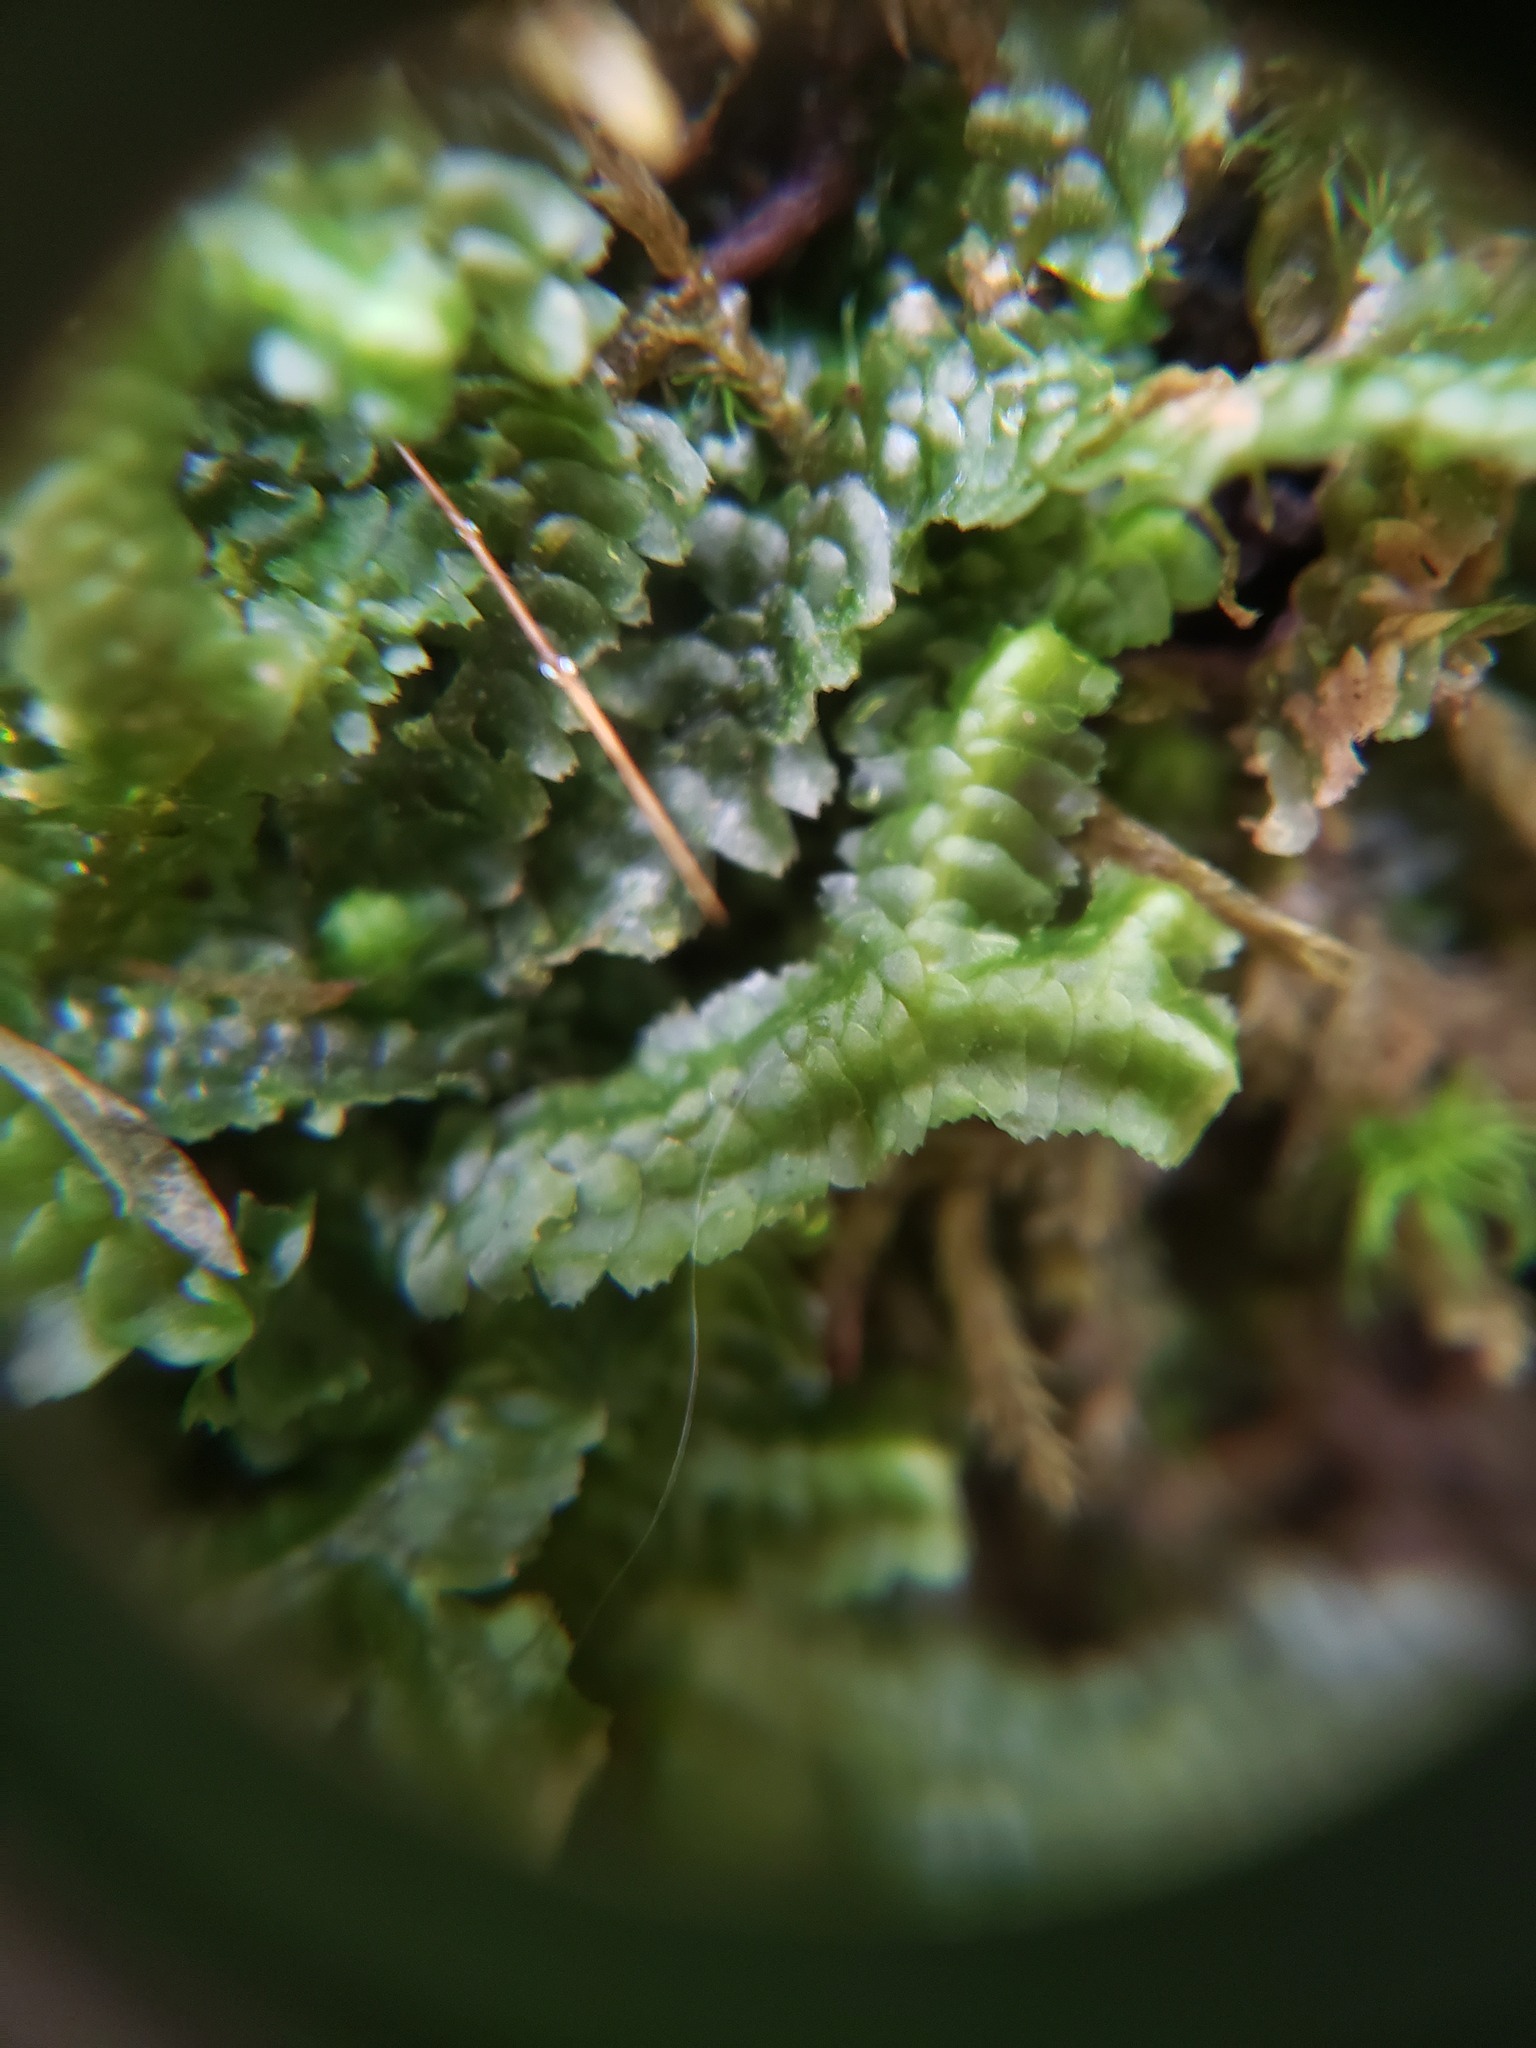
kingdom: Plantae
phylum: Marchantiophyta
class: Jungermanniopsida
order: Jungermanniales
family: Lepidoziaceae
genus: Bazzania
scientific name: Bazzania trilobata
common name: Three-lobed whipwort
